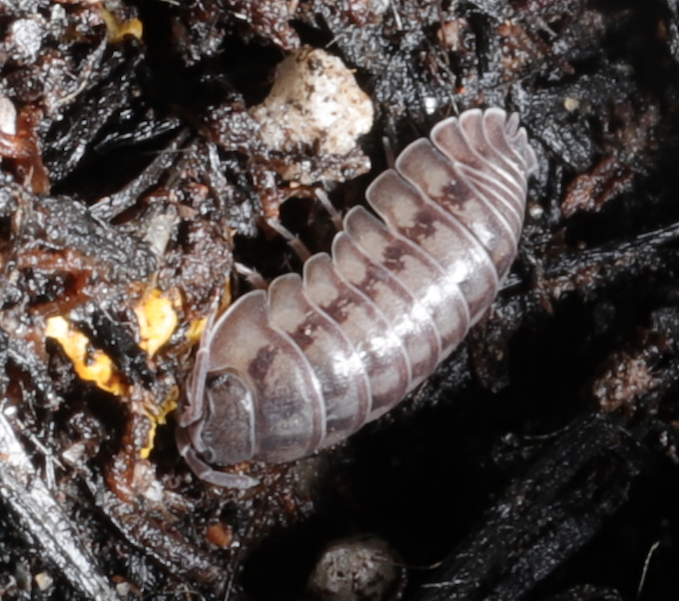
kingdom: Animalia
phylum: Arthropoda
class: Malacostraca
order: Isopoda
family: Armadillidiidae
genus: Armadillidium
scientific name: Armadillidium nasatum
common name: Isopod
